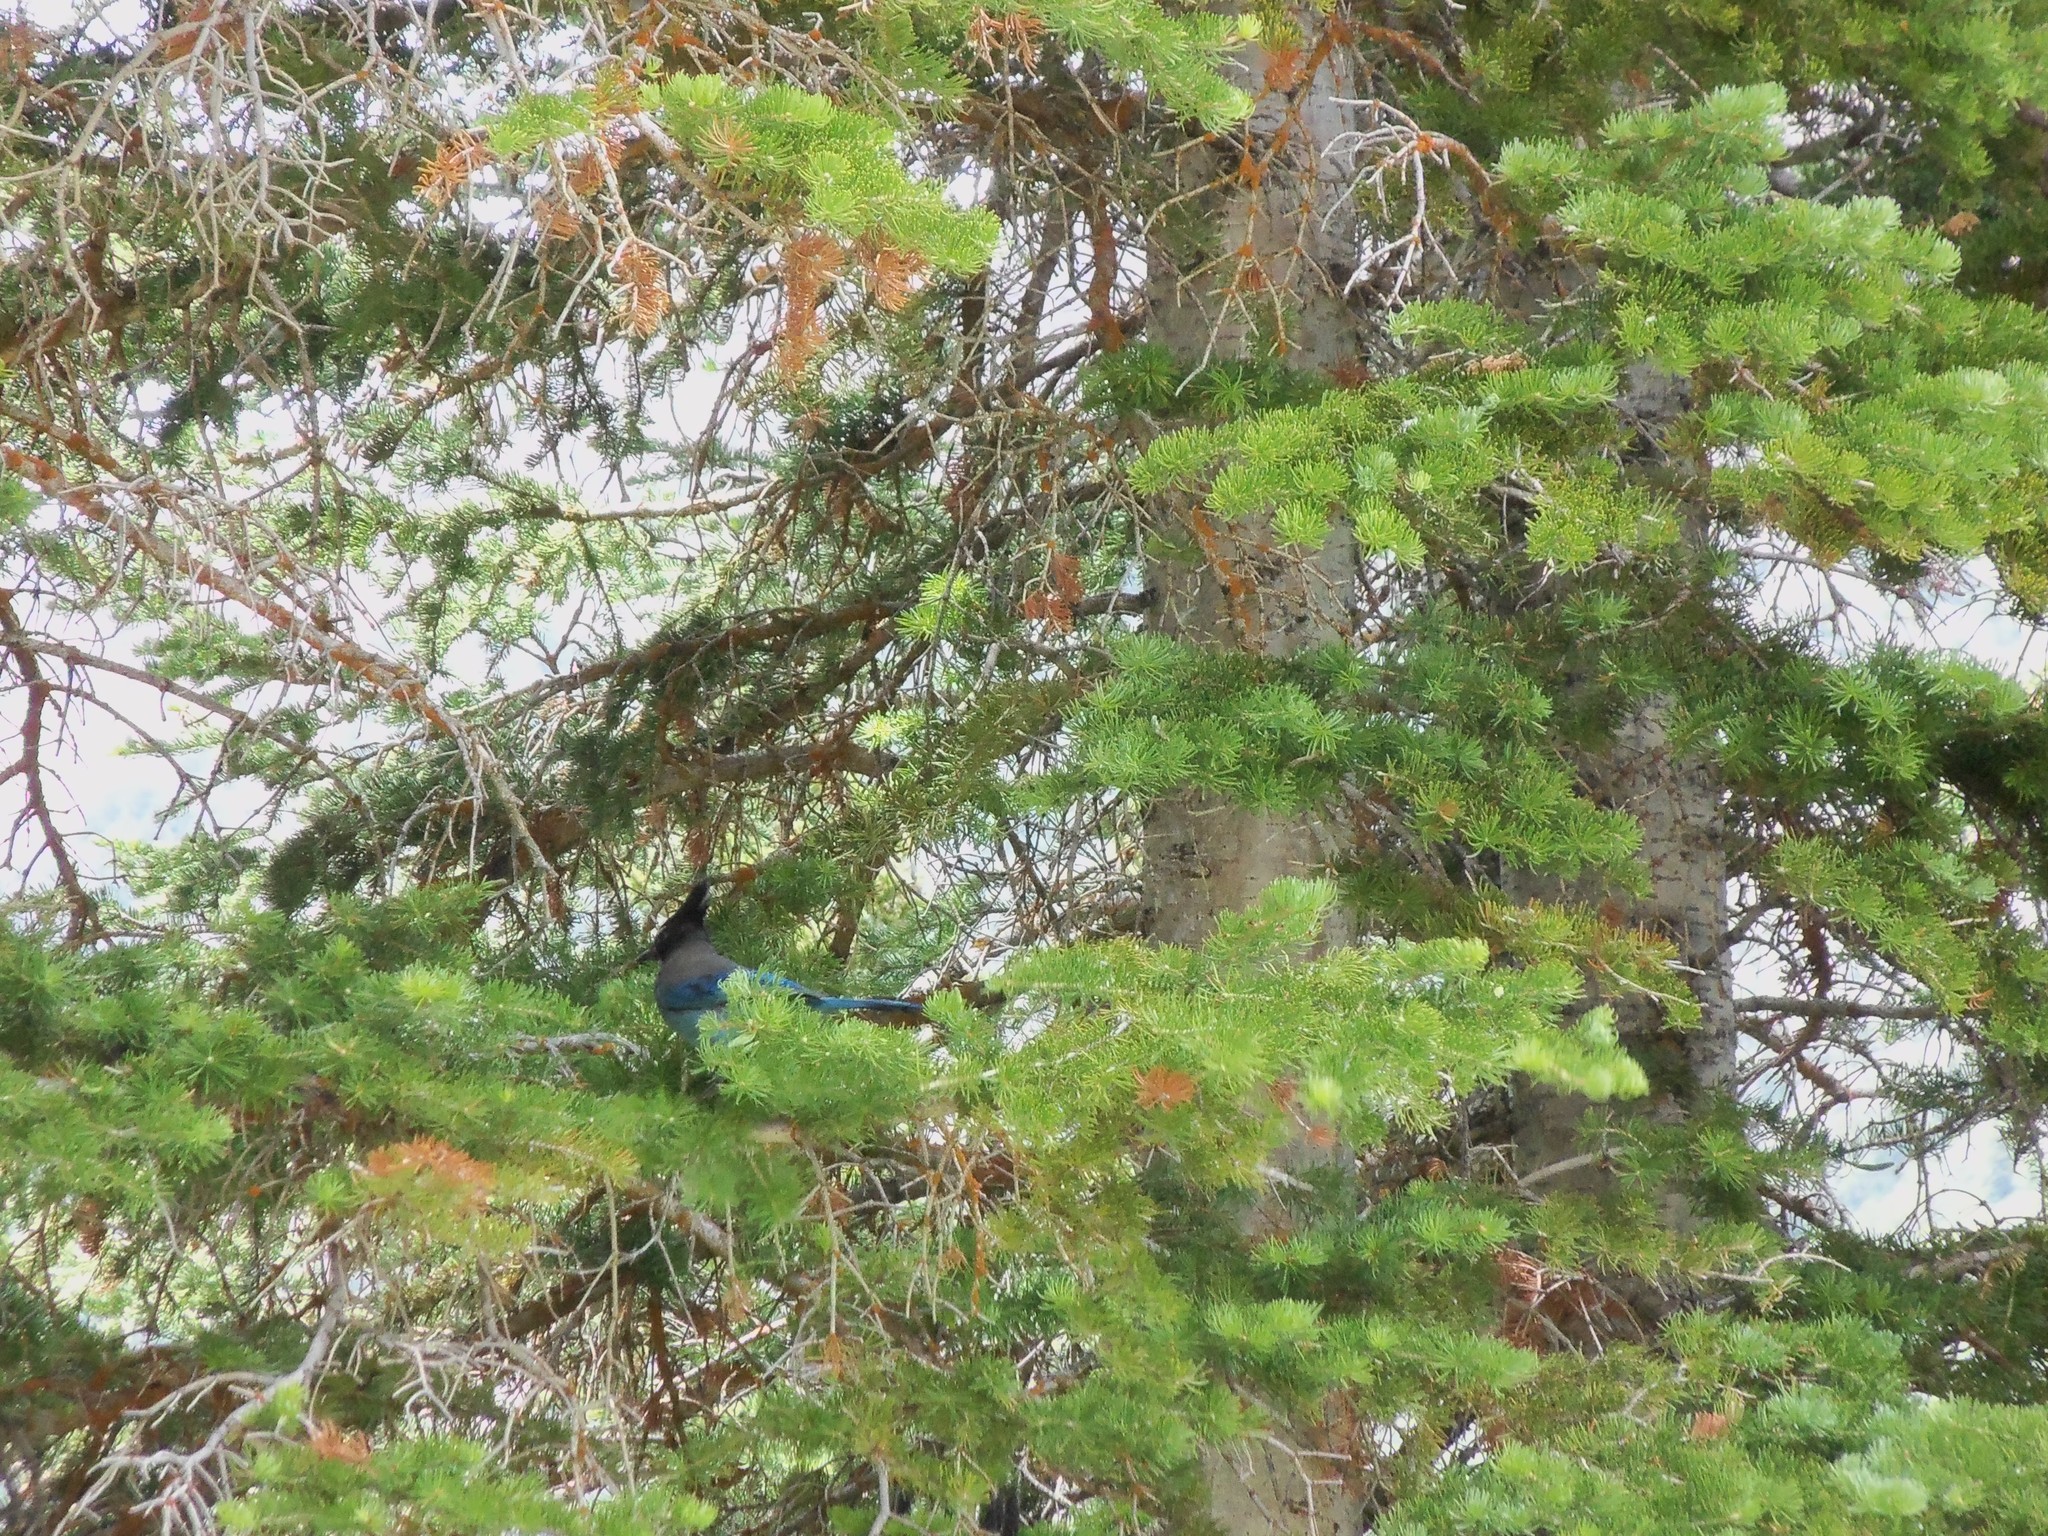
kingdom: Animalia
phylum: Chordata
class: Aves
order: Passeriformes
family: Corvidae
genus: Cyanocitta
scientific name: Cyanocitta stelleri
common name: Steller's jay
